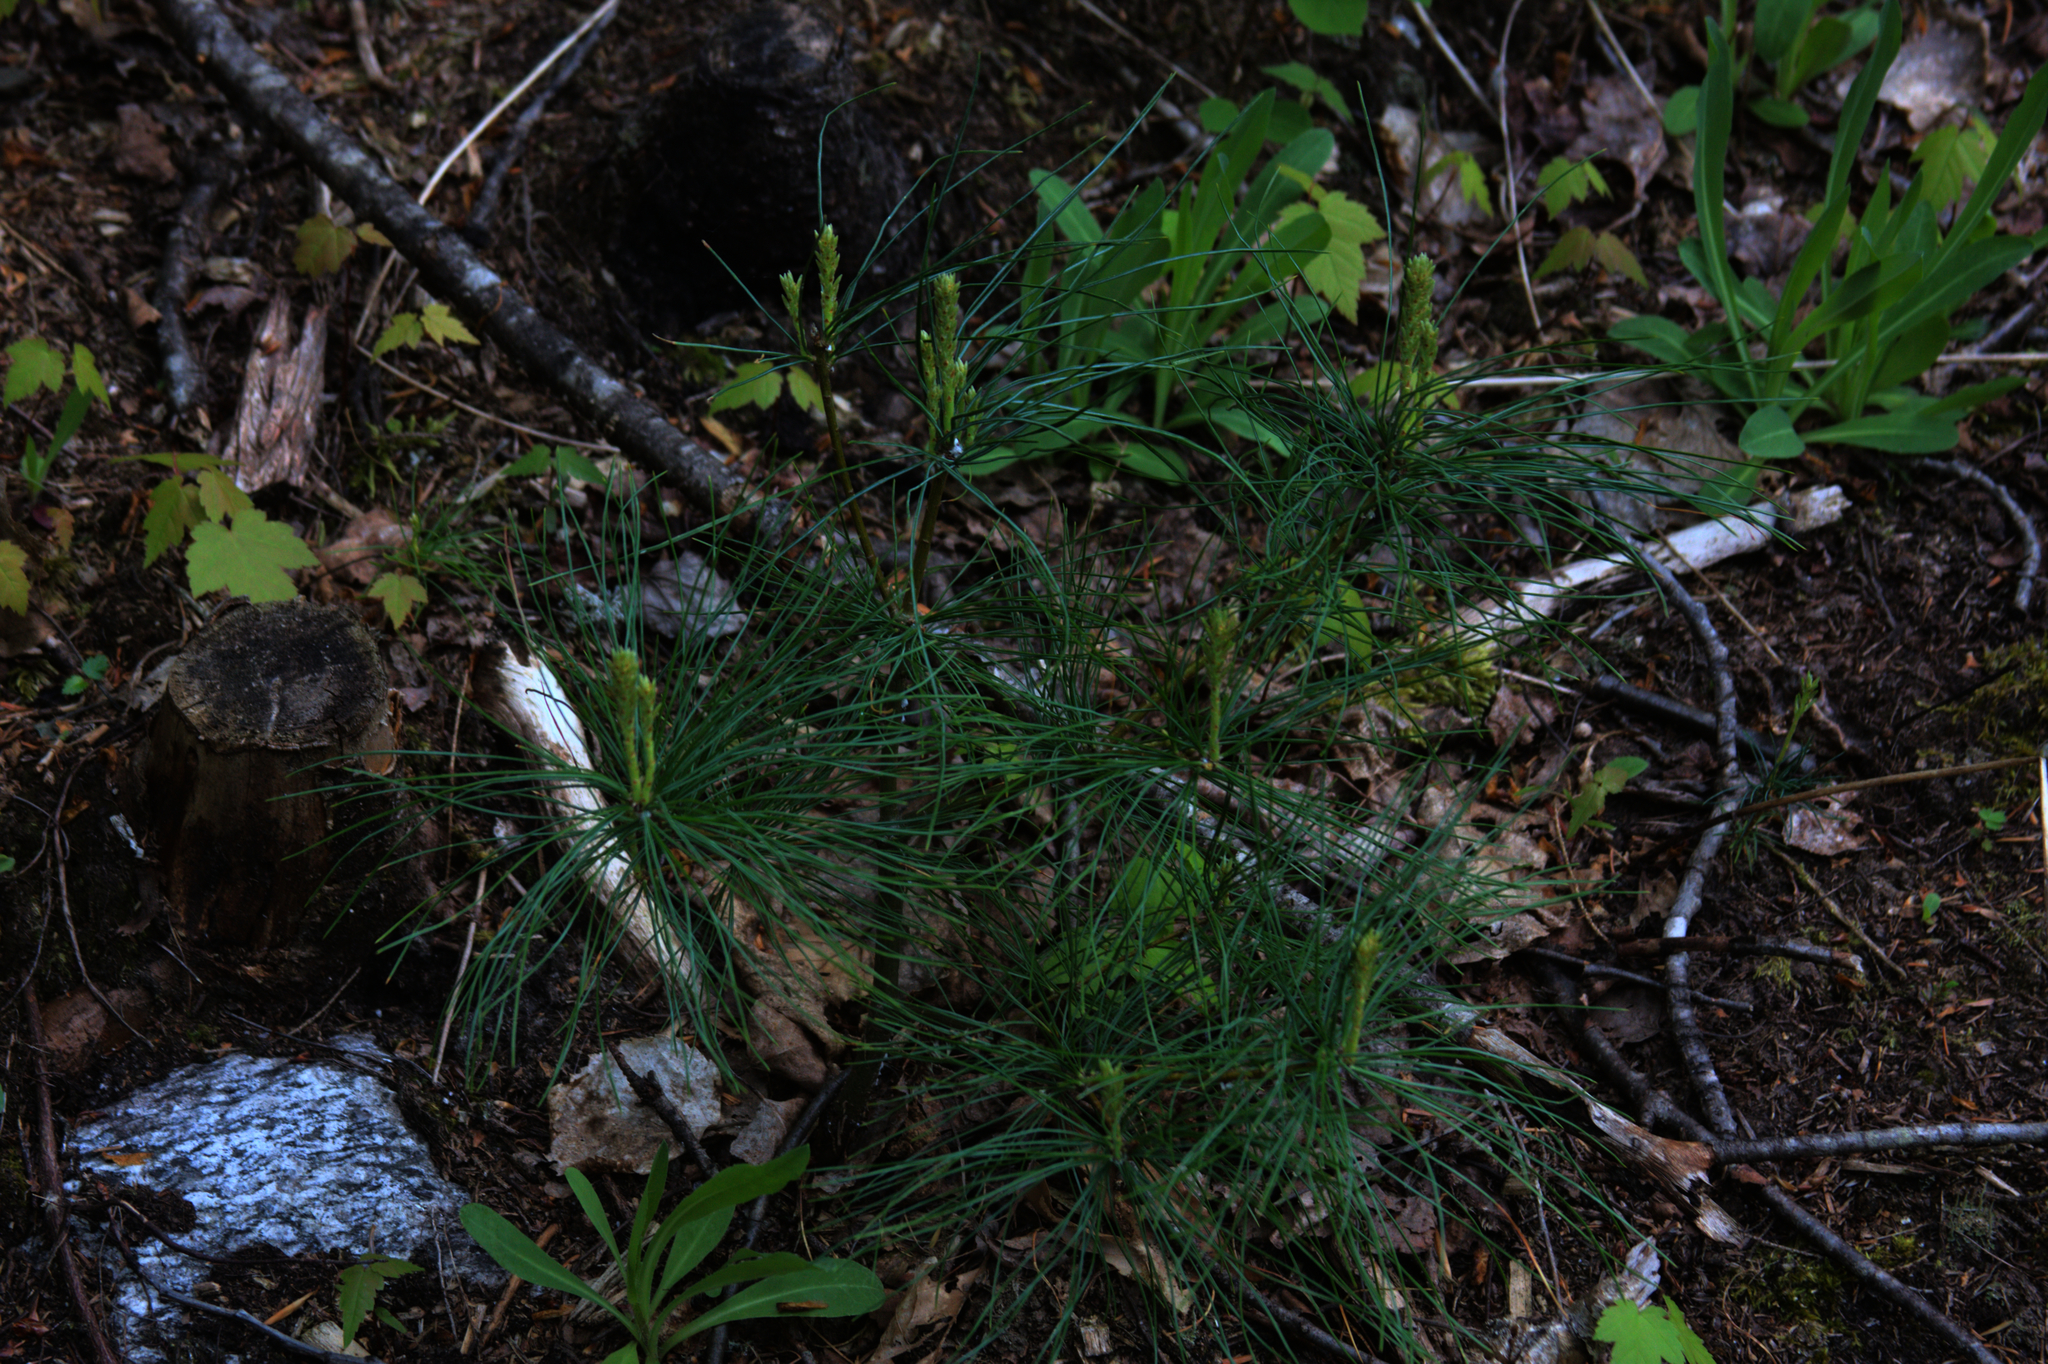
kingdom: Plantae
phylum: Tracheophyta
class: Pinopsida
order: Pinales
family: Pinaceae
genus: Pinus
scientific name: Pinus strobus
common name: Weymouth pine
